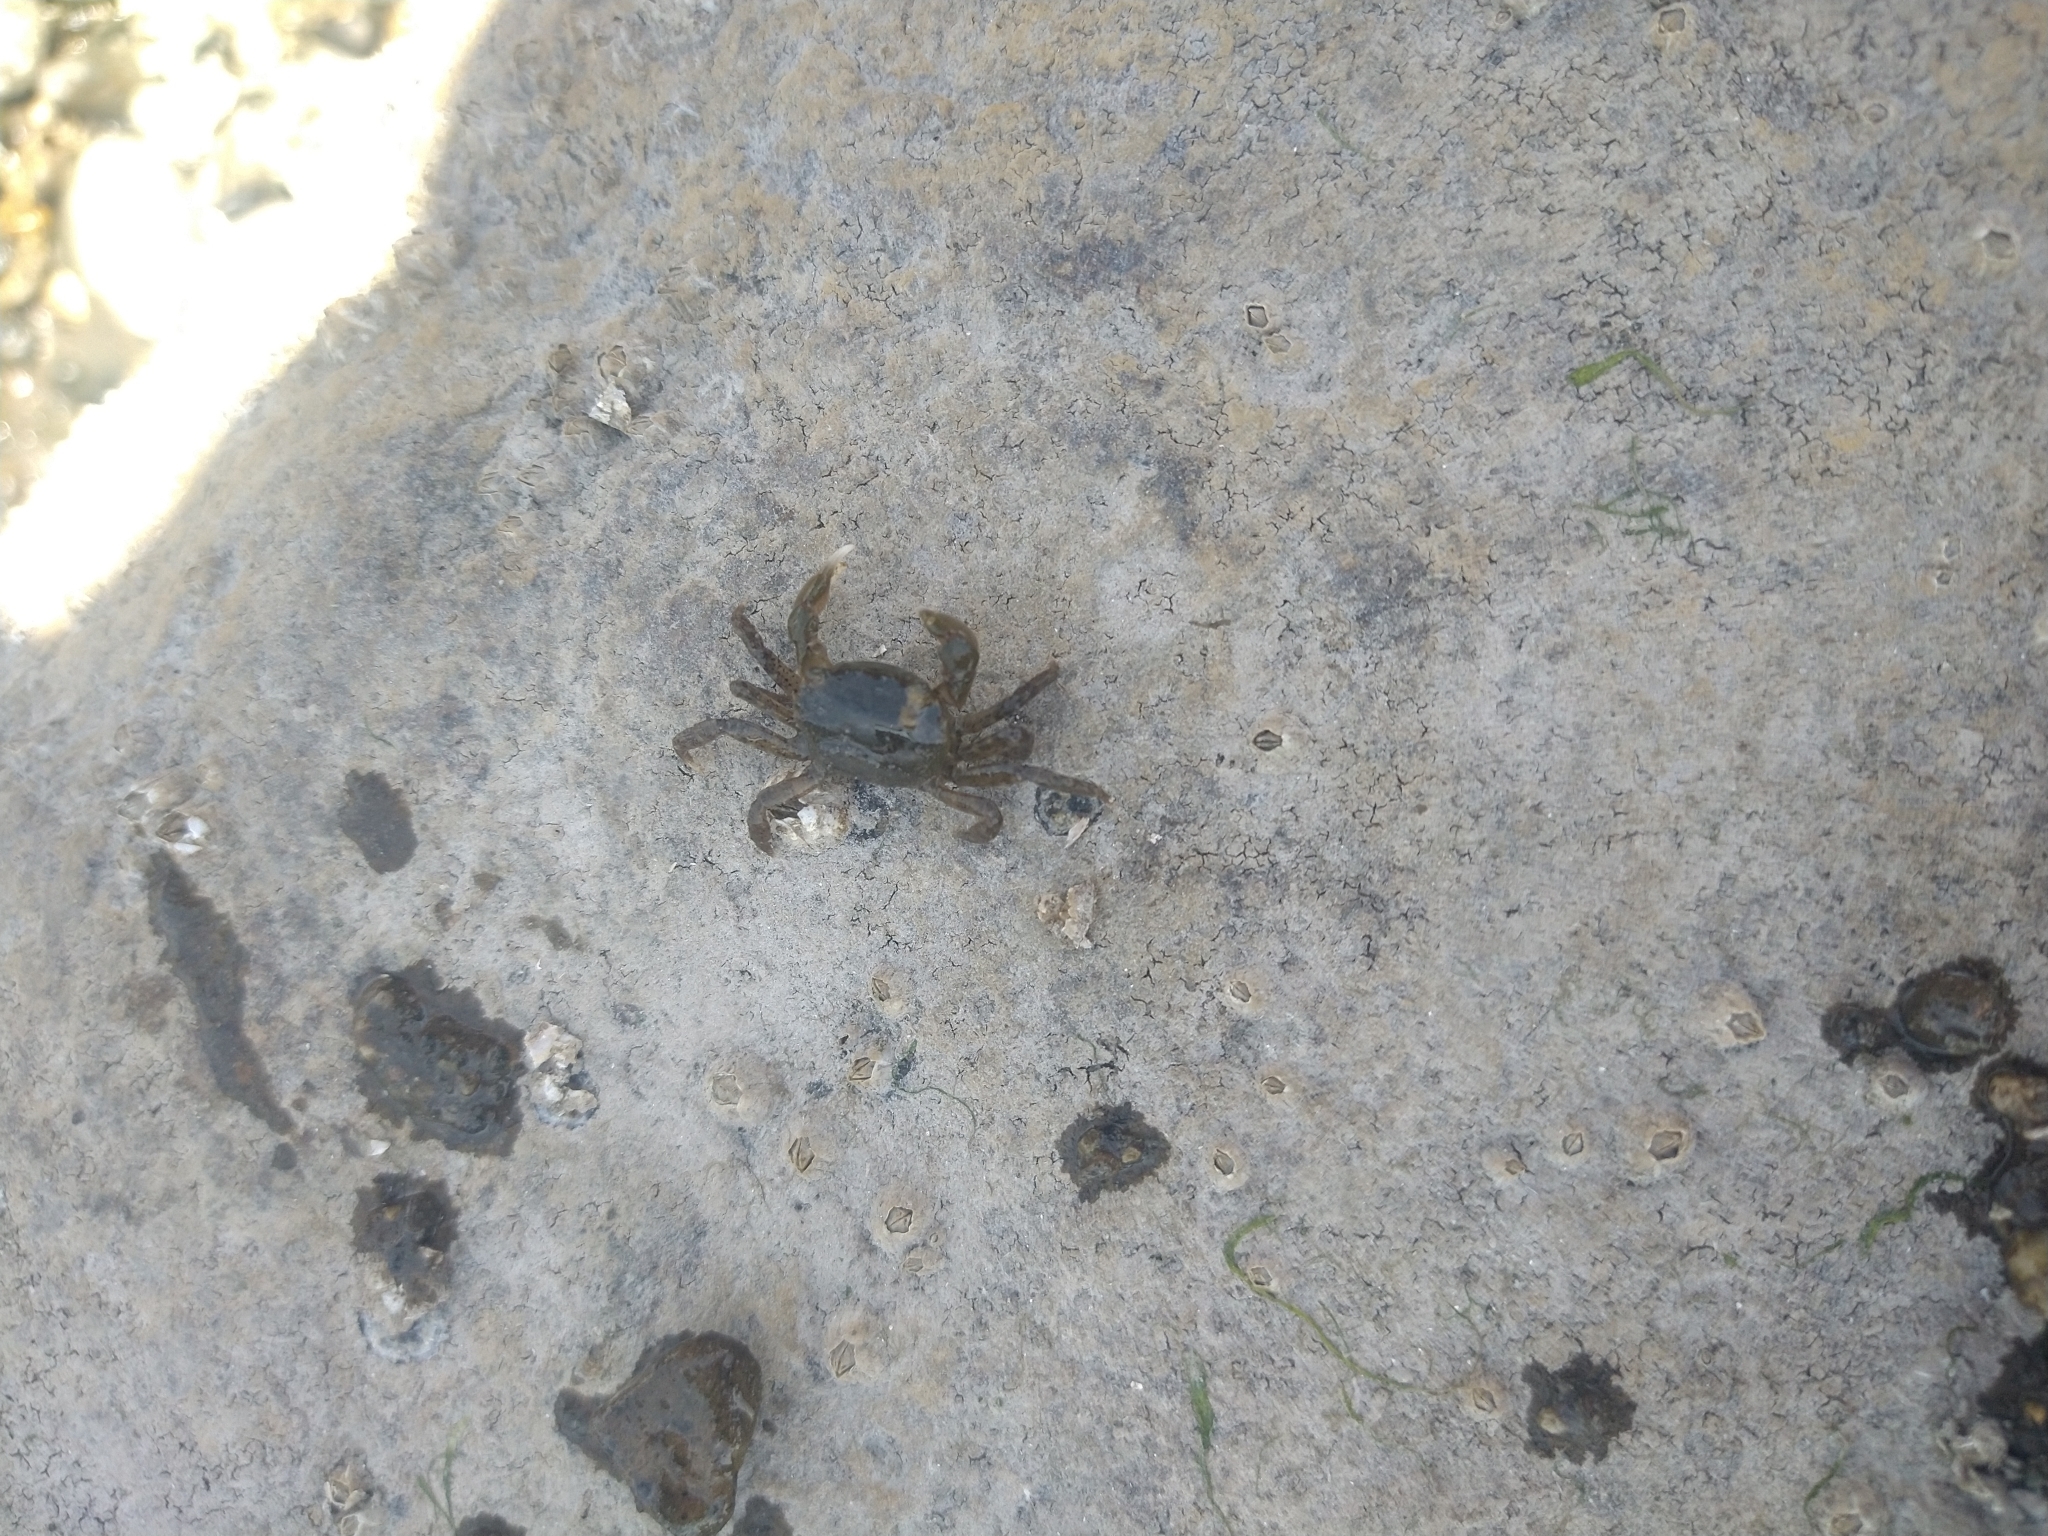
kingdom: Animalia
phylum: Arthropoda
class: Malacostraca
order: Decapoda
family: Varunidae
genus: Hemigrapsus
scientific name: Hemigrapsus oregonensis
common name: Yellow shore crab
